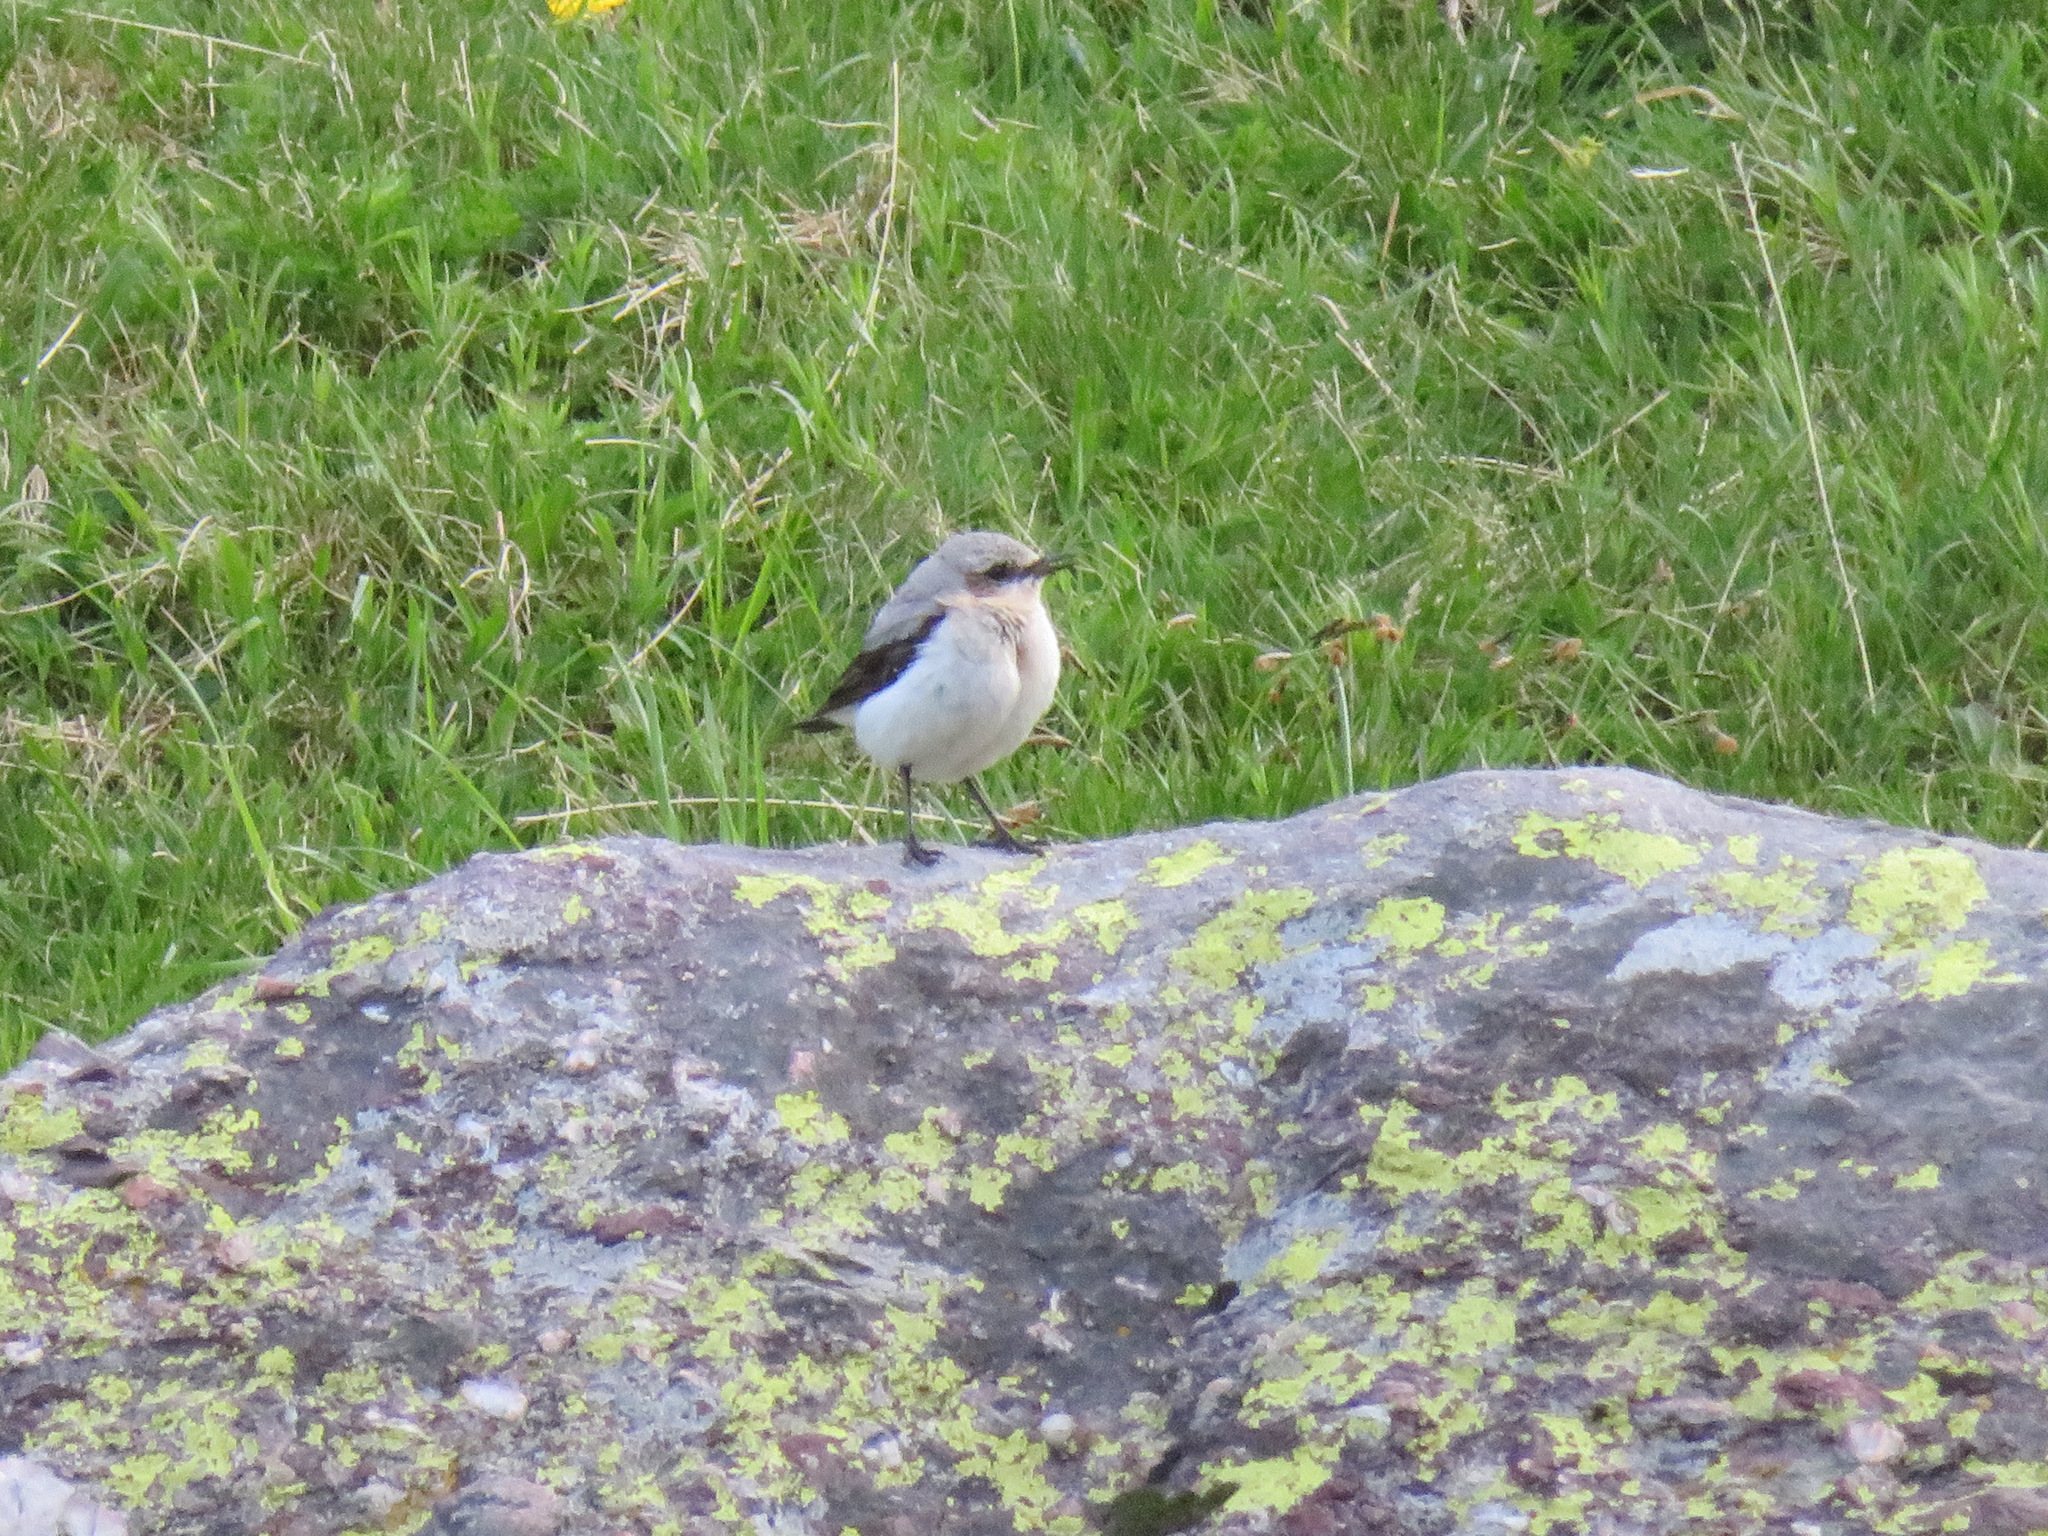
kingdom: Animalia
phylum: Chordata
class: Aves
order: Passeriformes
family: Muscicapidae
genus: Oenanthe
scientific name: Oenanthe oenanthe
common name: Northern wheatear
